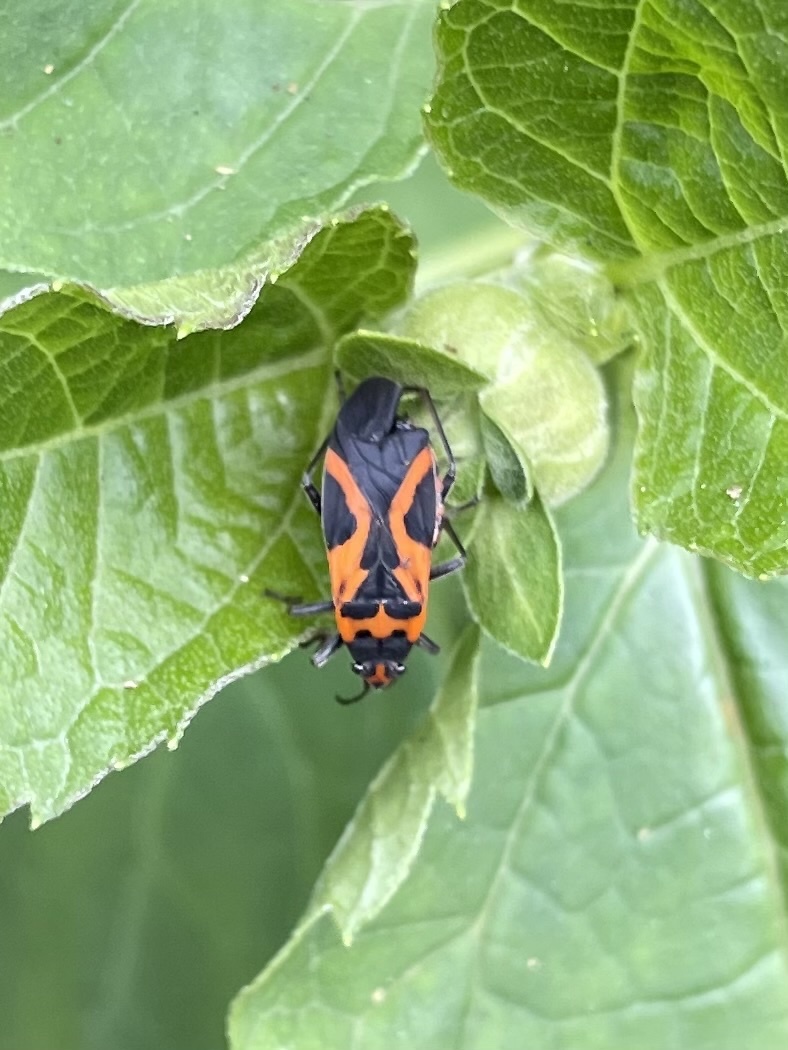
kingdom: Animalia
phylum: Arthropoda
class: Insecta
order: Hemiptera
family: Lygaeidae
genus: Lygaeus
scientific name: Lygaeus turcicus
